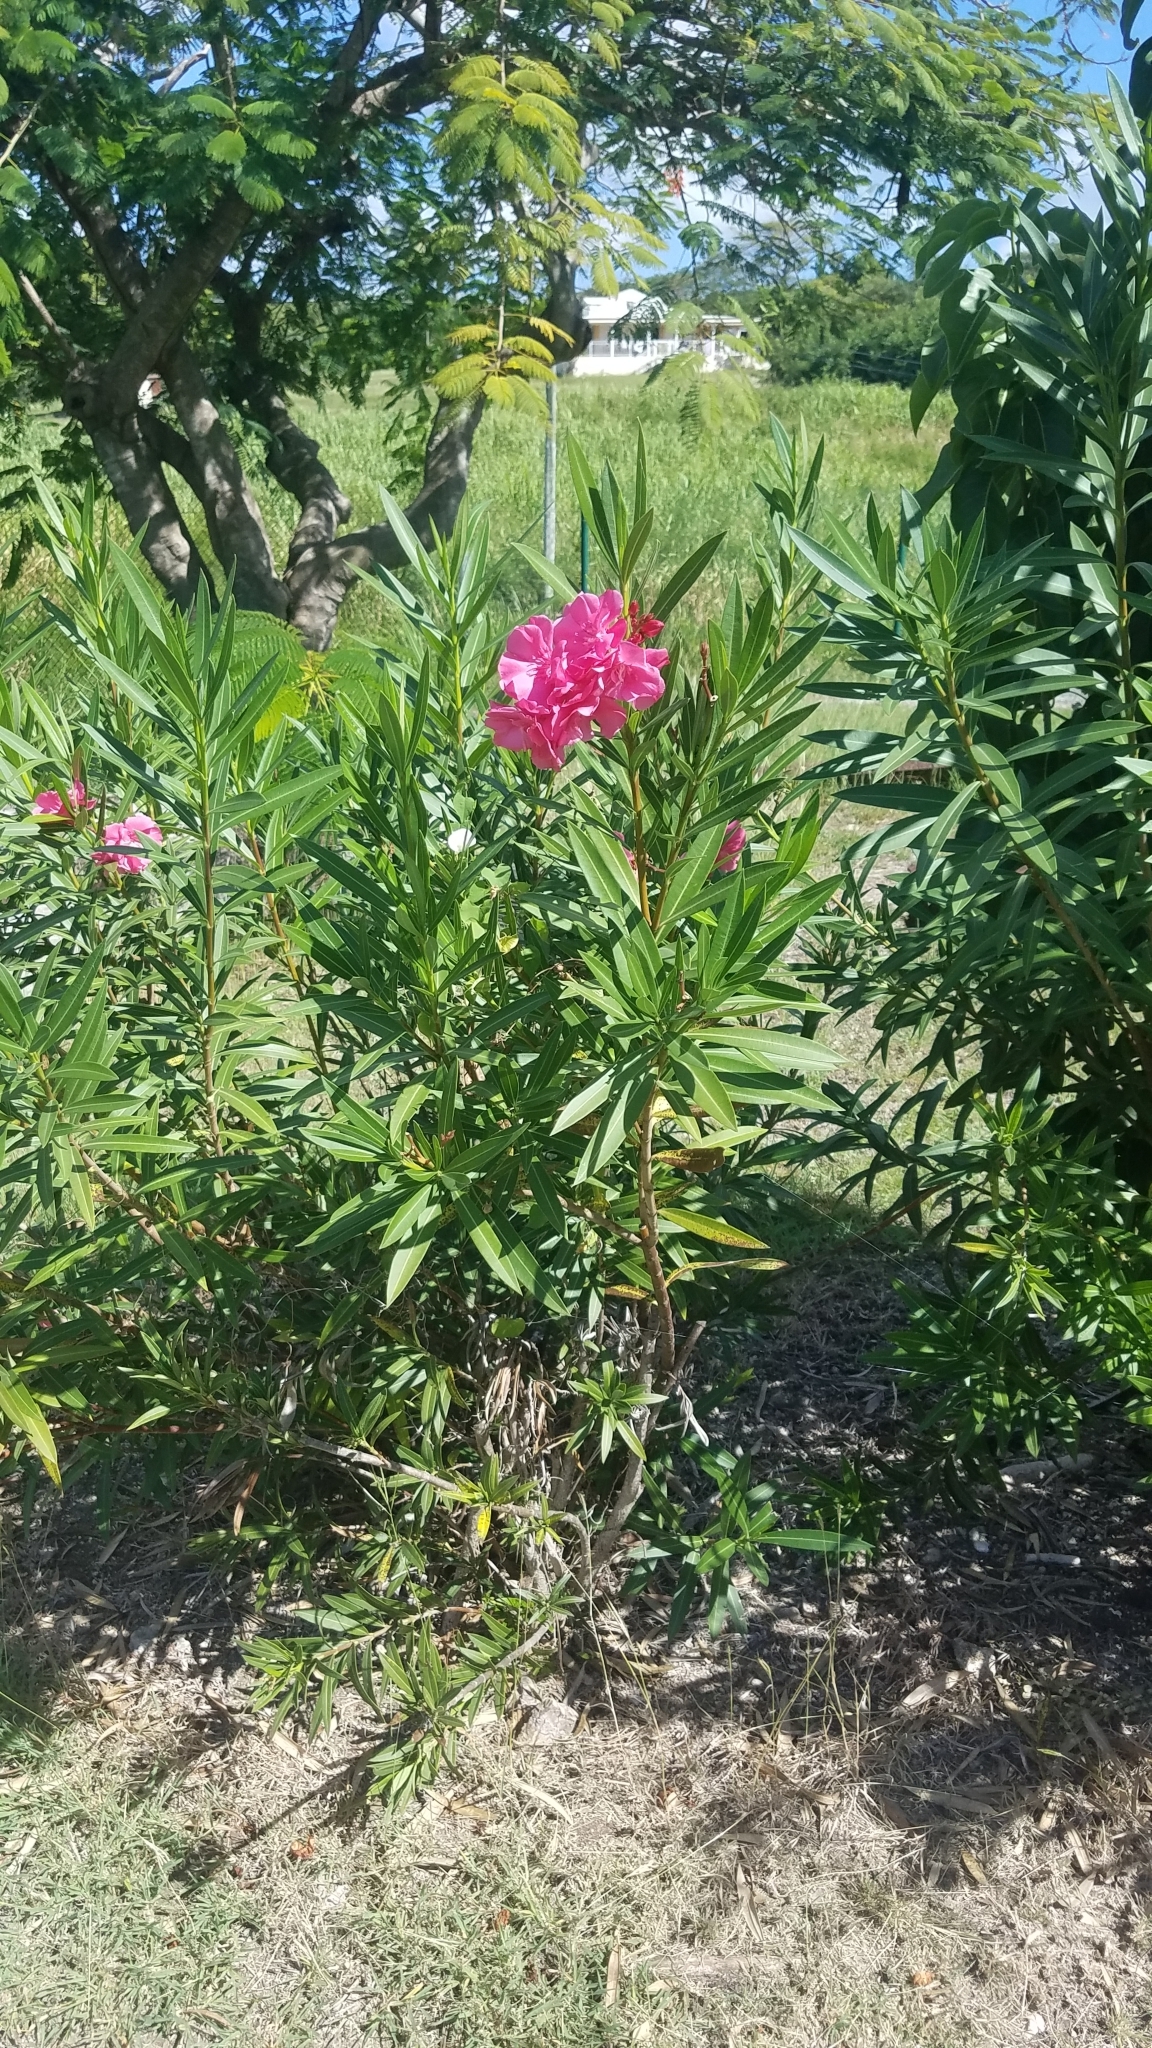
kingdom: Plantae
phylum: Tracheophyta
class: Magnoliopsida
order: Gentianales
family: Apocynaceae
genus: Nerium
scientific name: Nerium oleander
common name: Oleander
